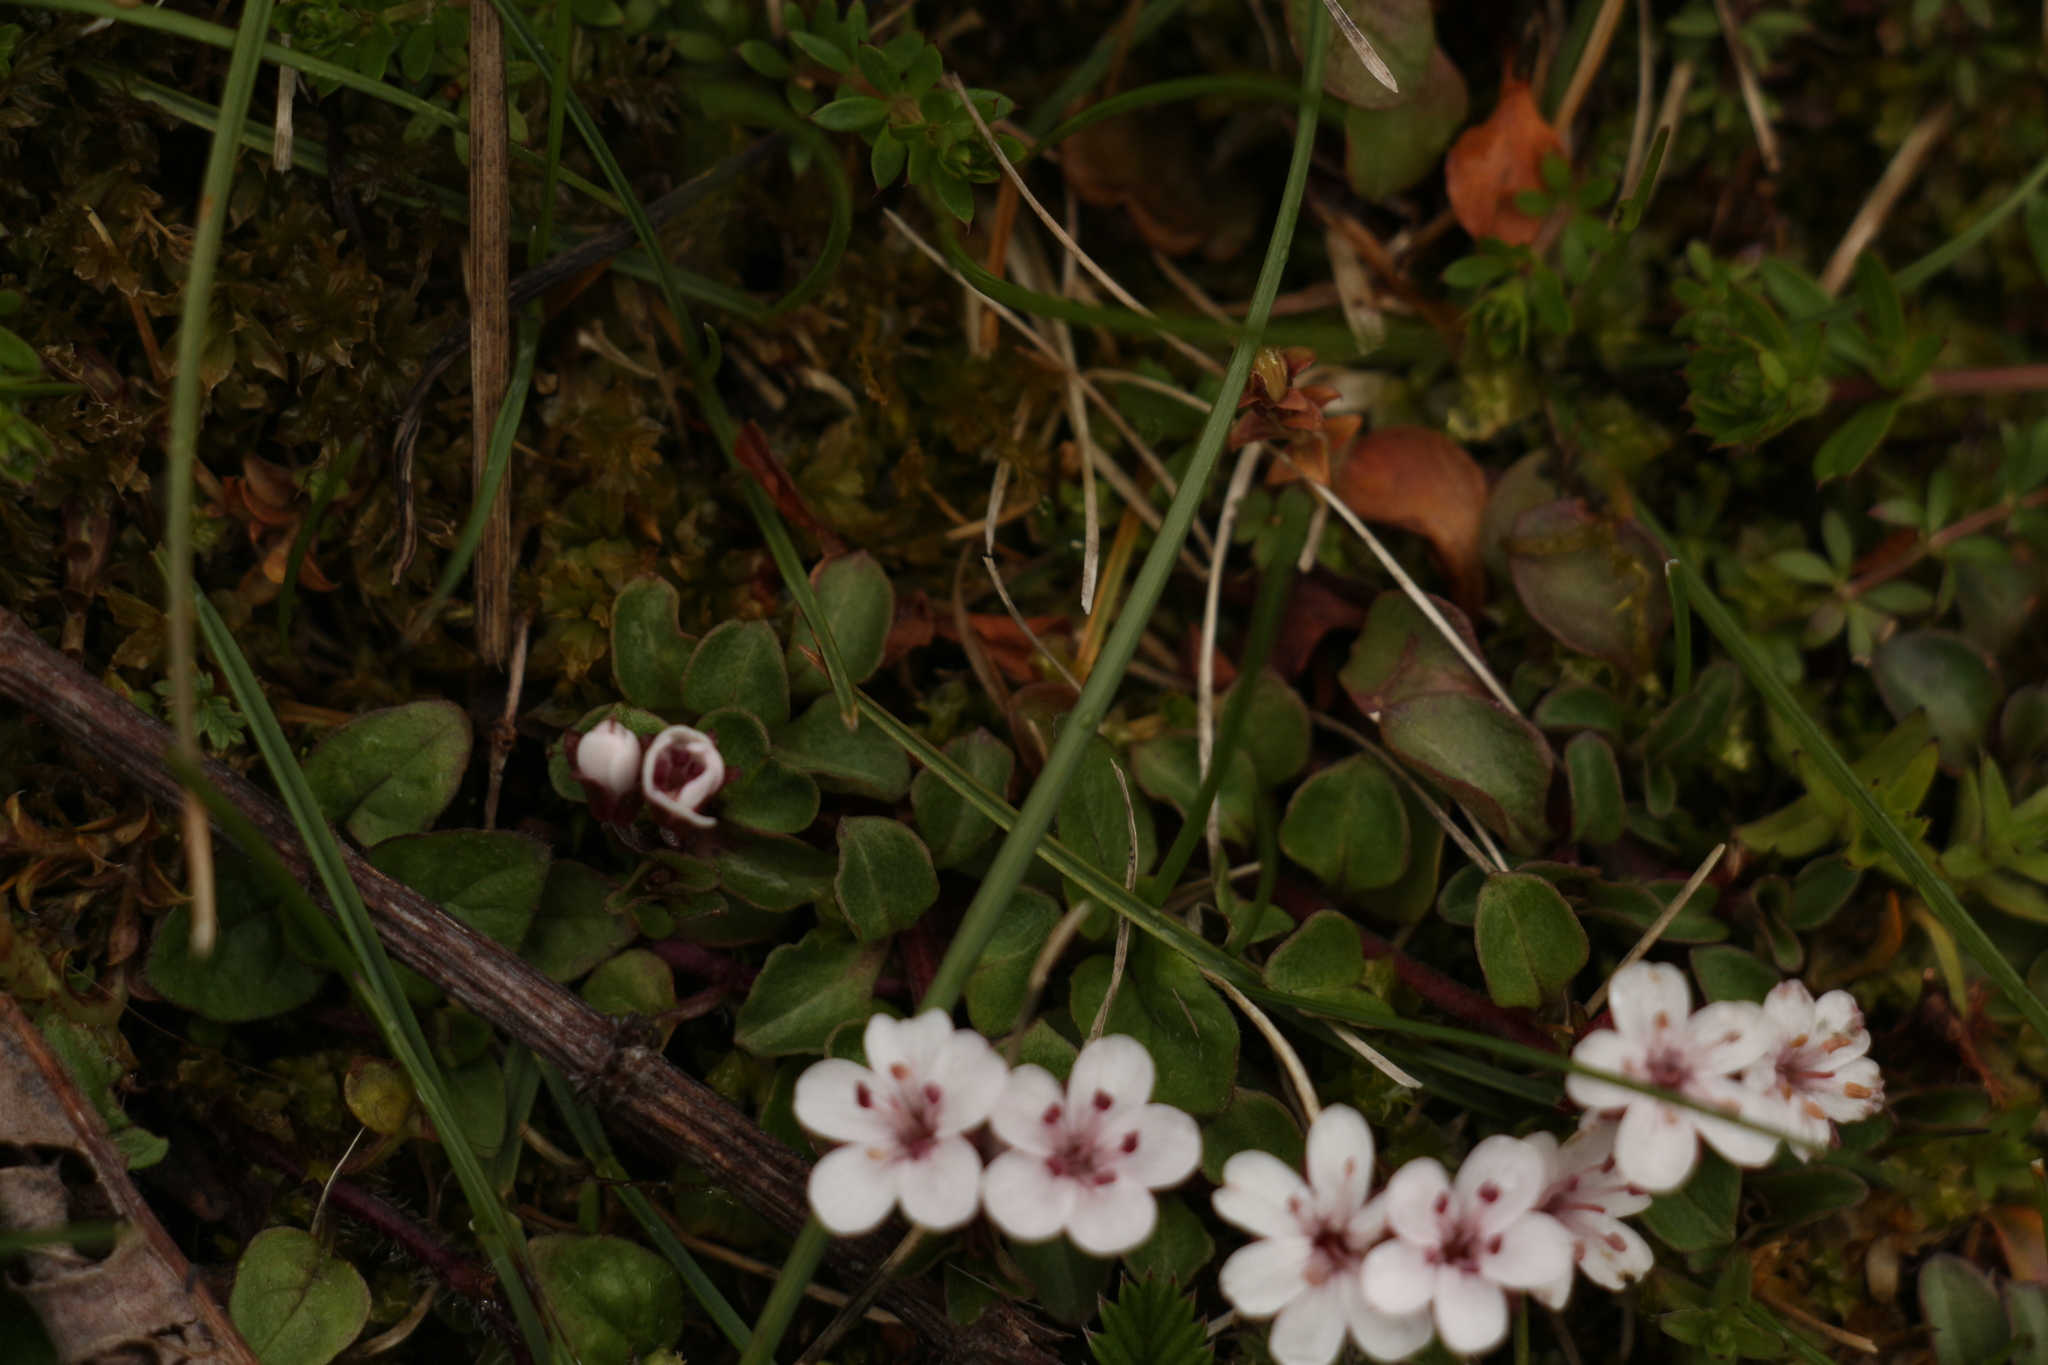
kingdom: Plantae
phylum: Tracheophyta
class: Magnoliopsida
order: Ericales
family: Primulaceae
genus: Lysimachia
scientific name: Lysimachia prolifera
